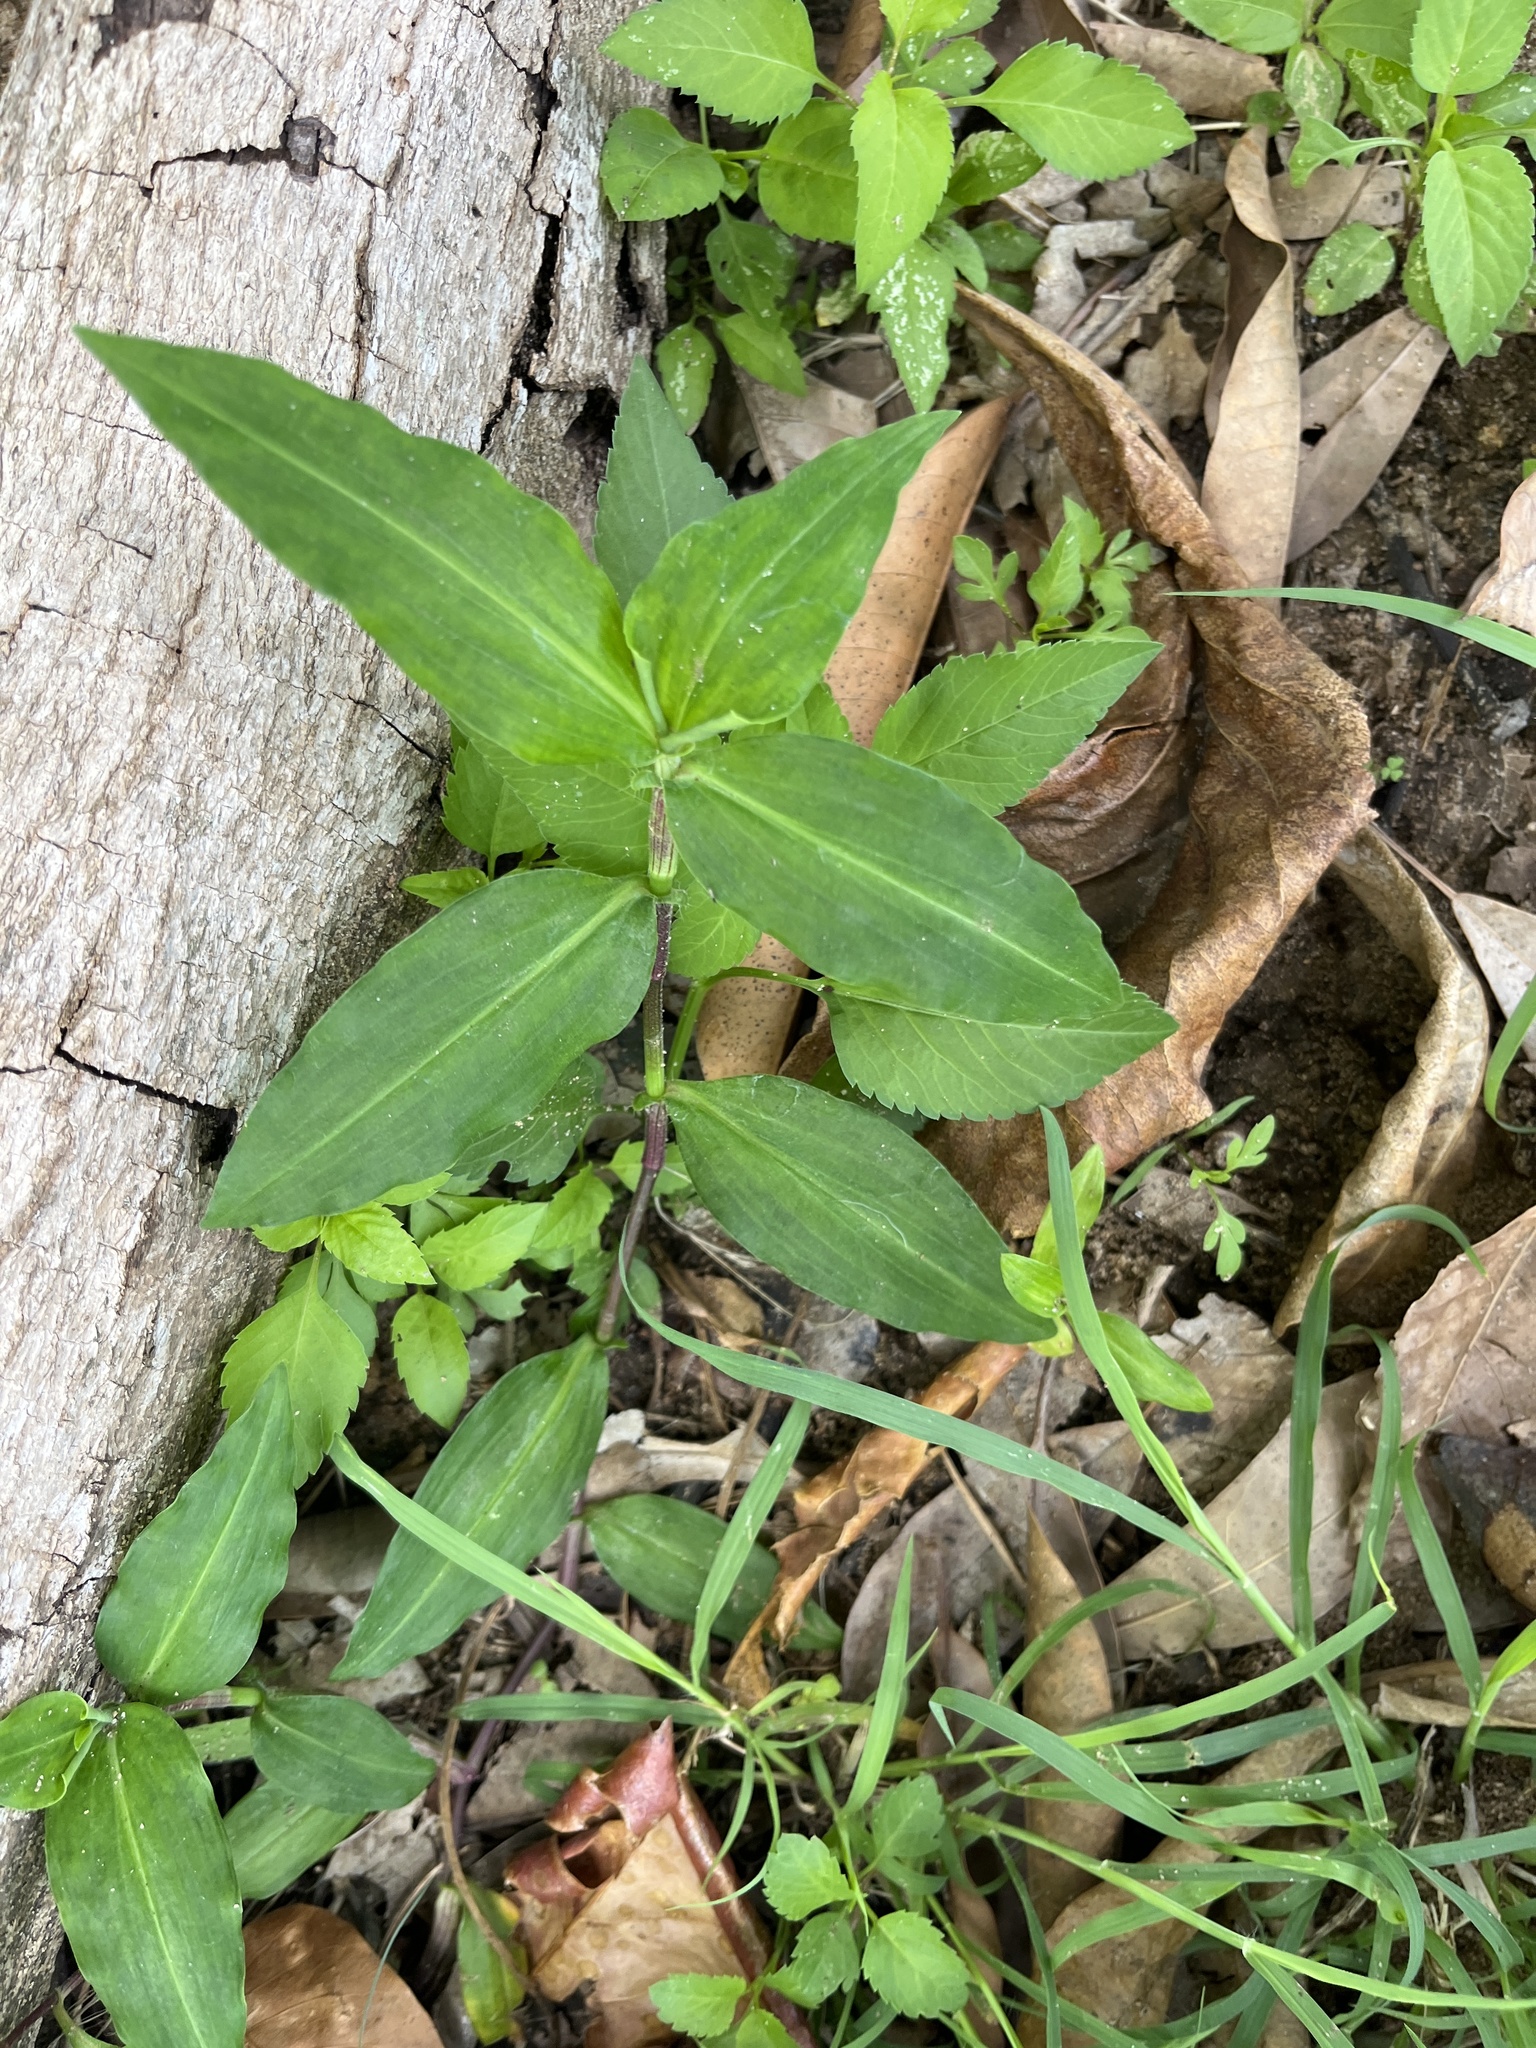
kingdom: Plantae
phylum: Tracheophyta
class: Liliopsida
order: Commelinales
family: Commelinaceae
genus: Commelina
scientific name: Commelina erecta
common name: Blousel blommetjie
